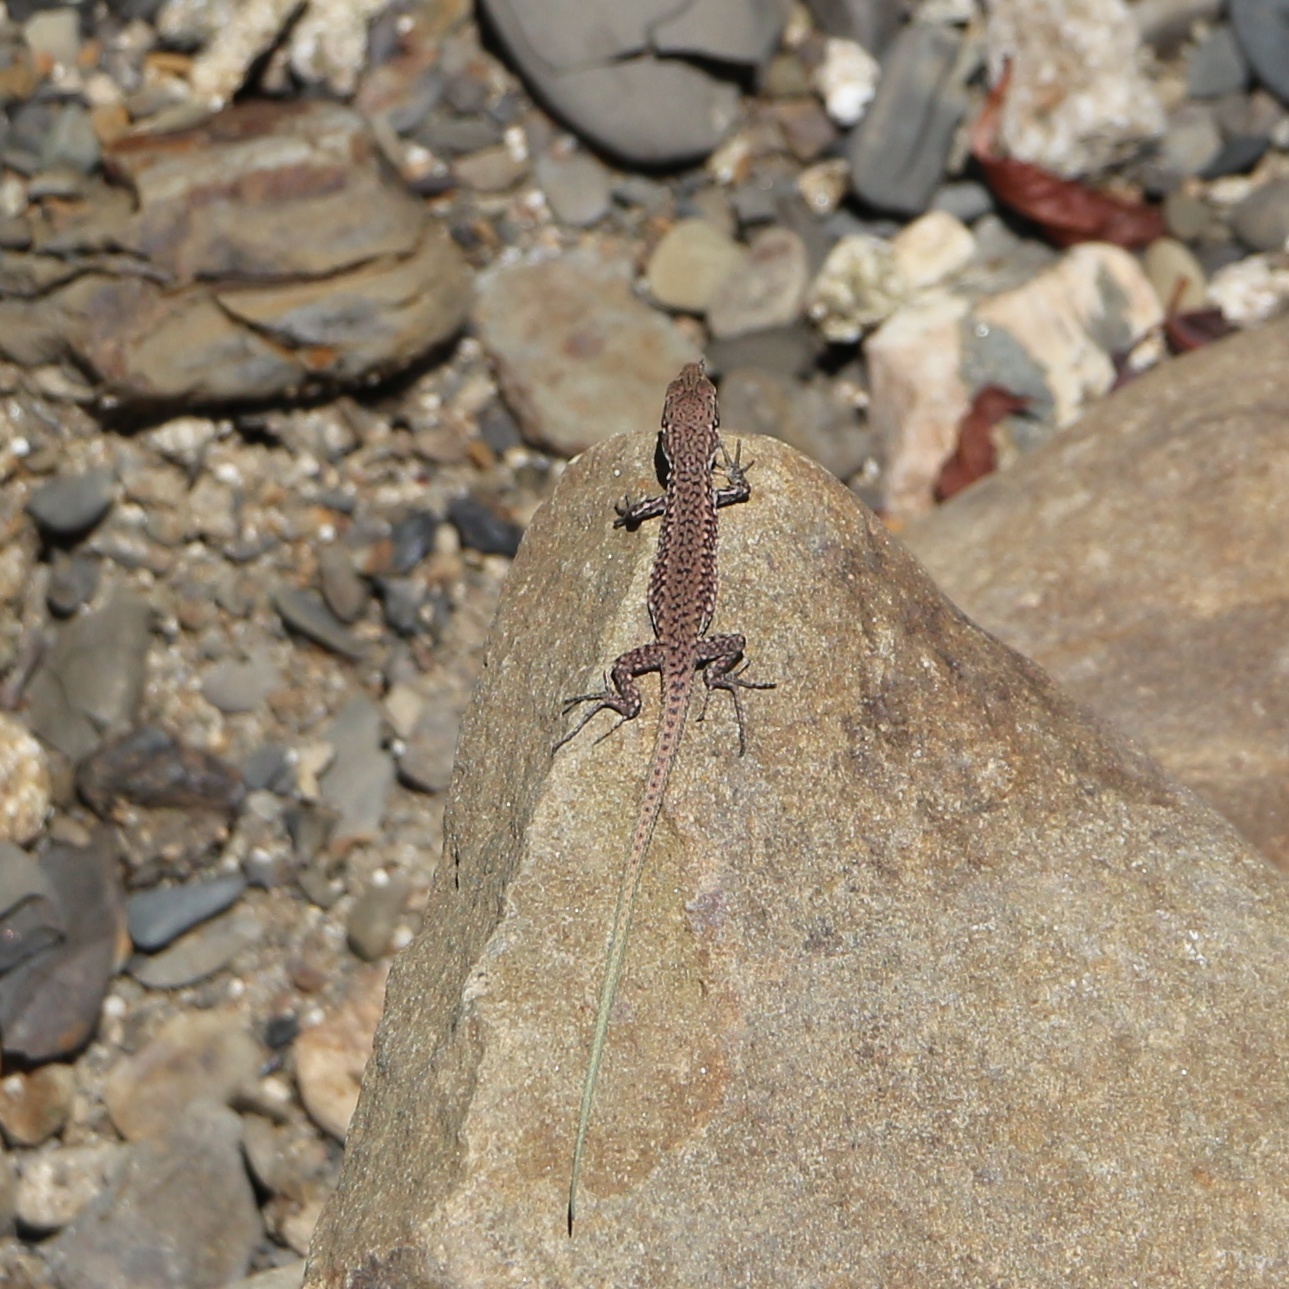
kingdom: Animalia
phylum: Chordata
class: Squamata
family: Lacertidae
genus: Darevskia
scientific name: Darevskia brauneri
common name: Brauner's rock lizard
